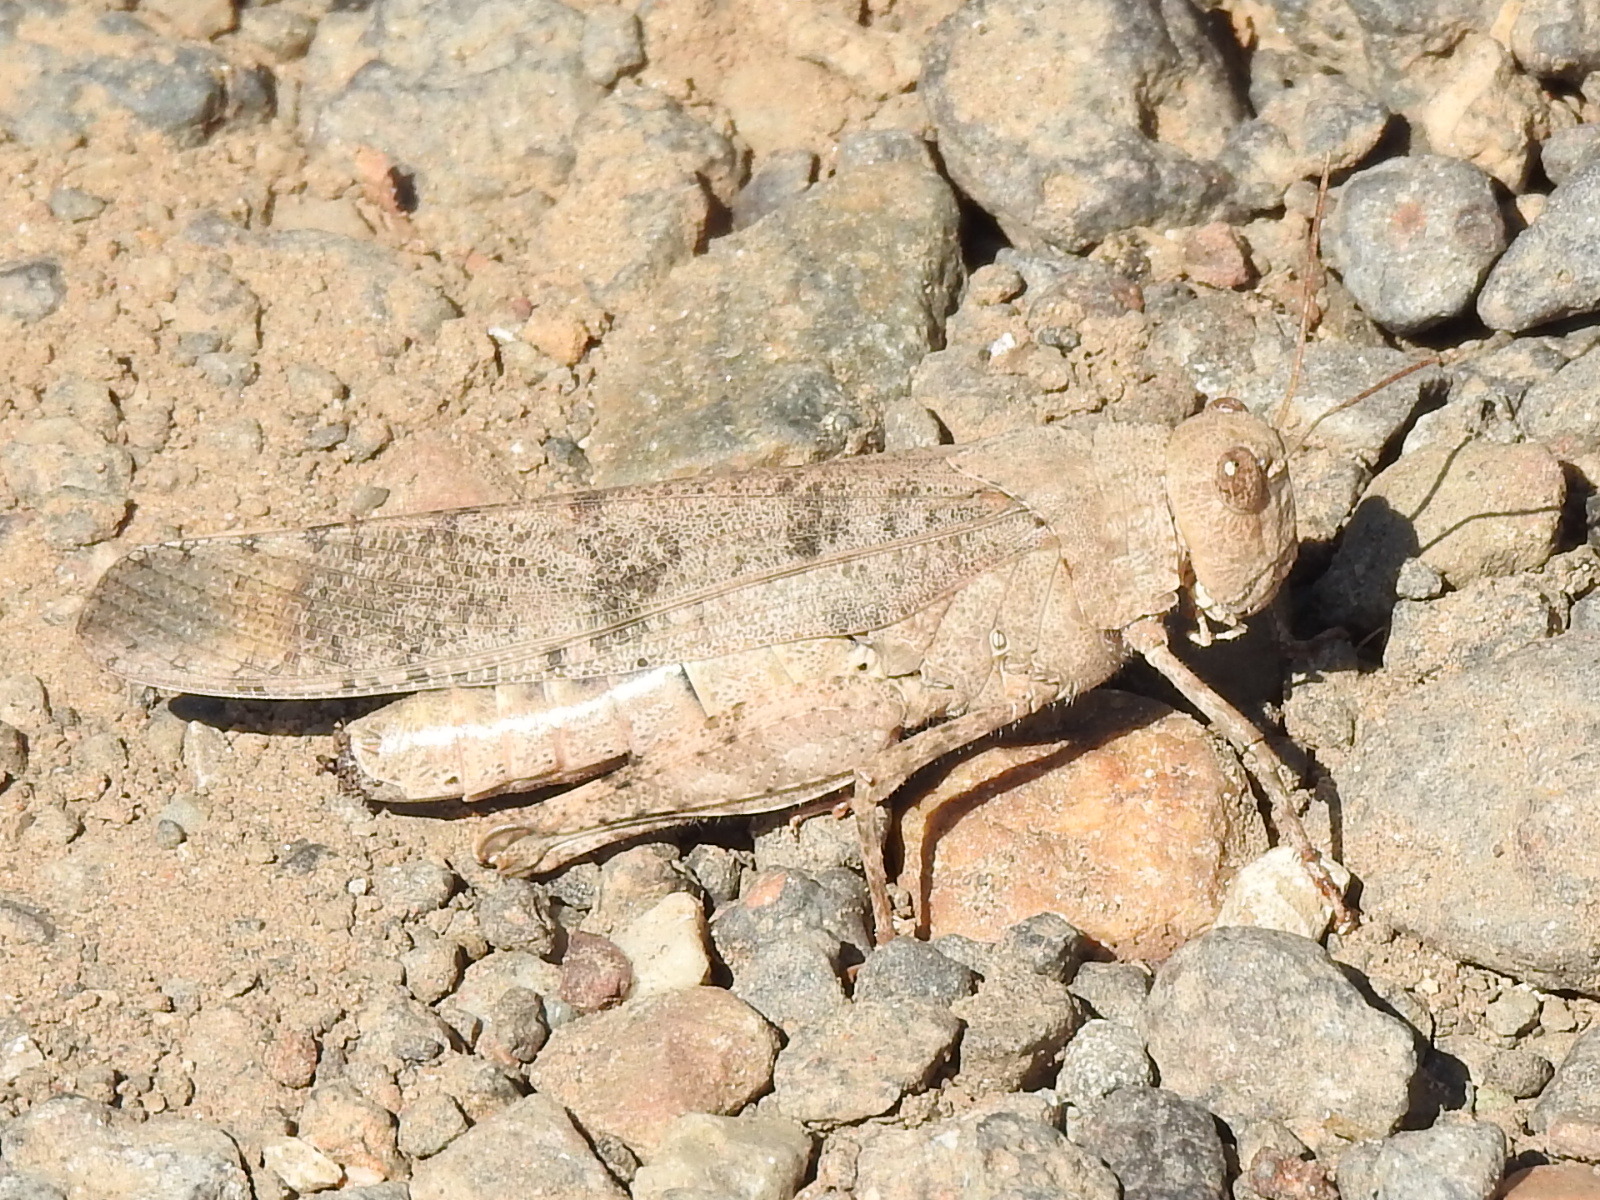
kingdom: Animalia
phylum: Arthropoda
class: Insecta
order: Orthoptera
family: Acrididae
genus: Dissosteira
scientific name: Dissosteira carolina
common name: Carolina grasshopper
